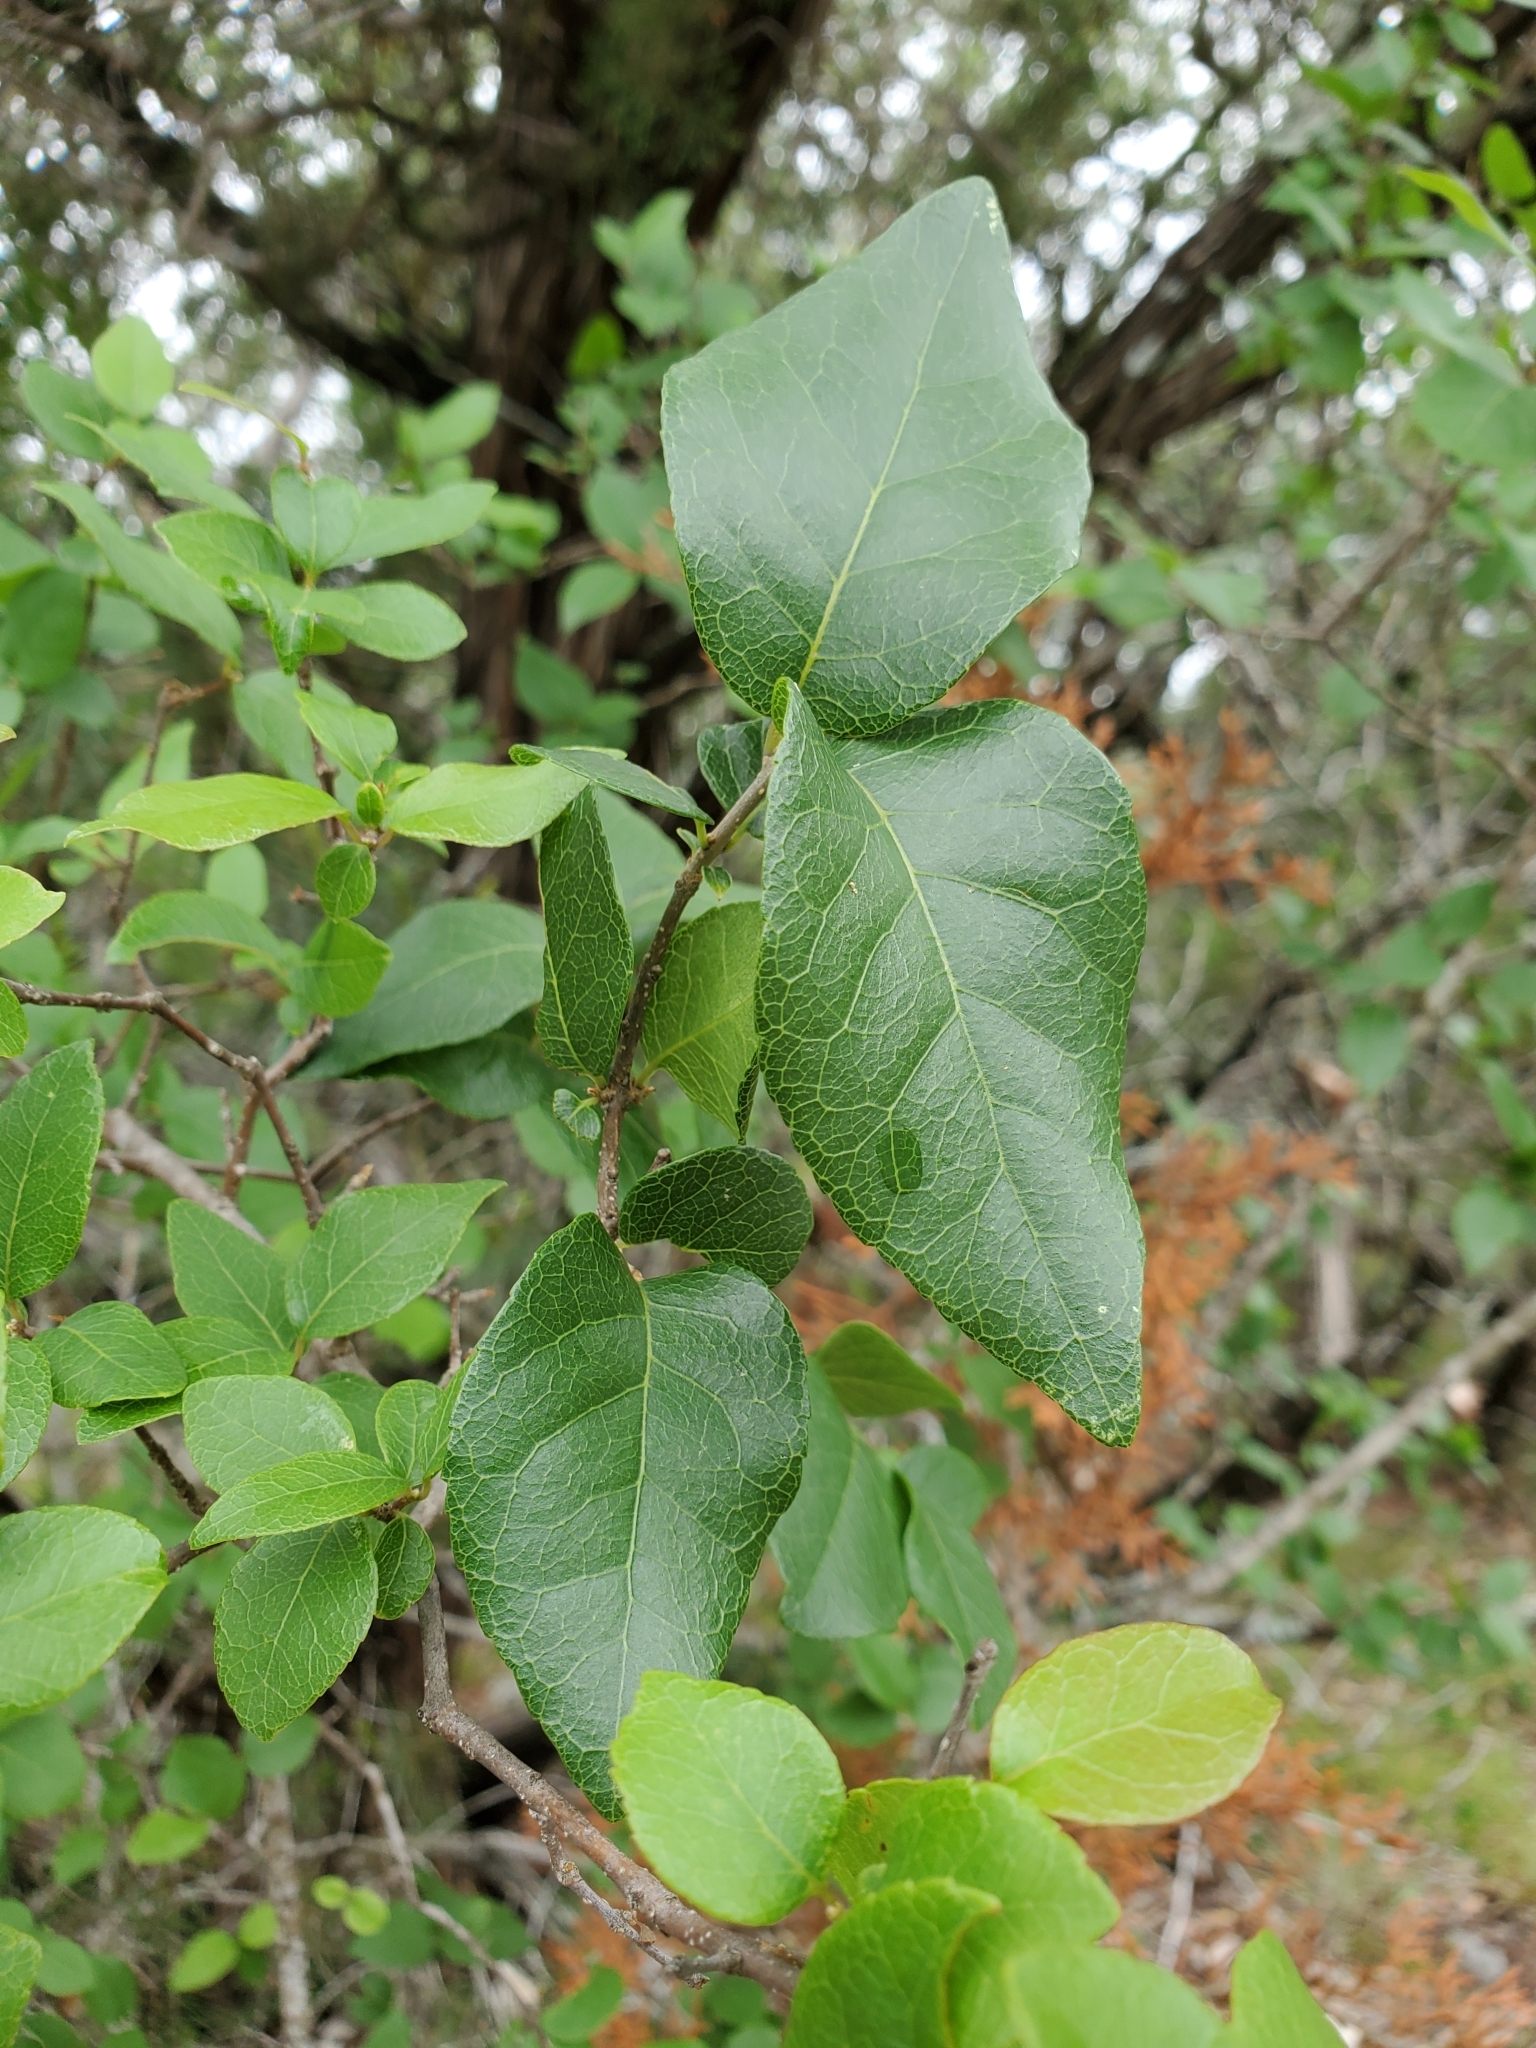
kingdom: Plantae
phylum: Tracheophyta
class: Magnoliopsida
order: Lamiales
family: Oleaceae
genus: Forestiera
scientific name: Forestiera reticulata
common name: Netleaf swamp-privet
